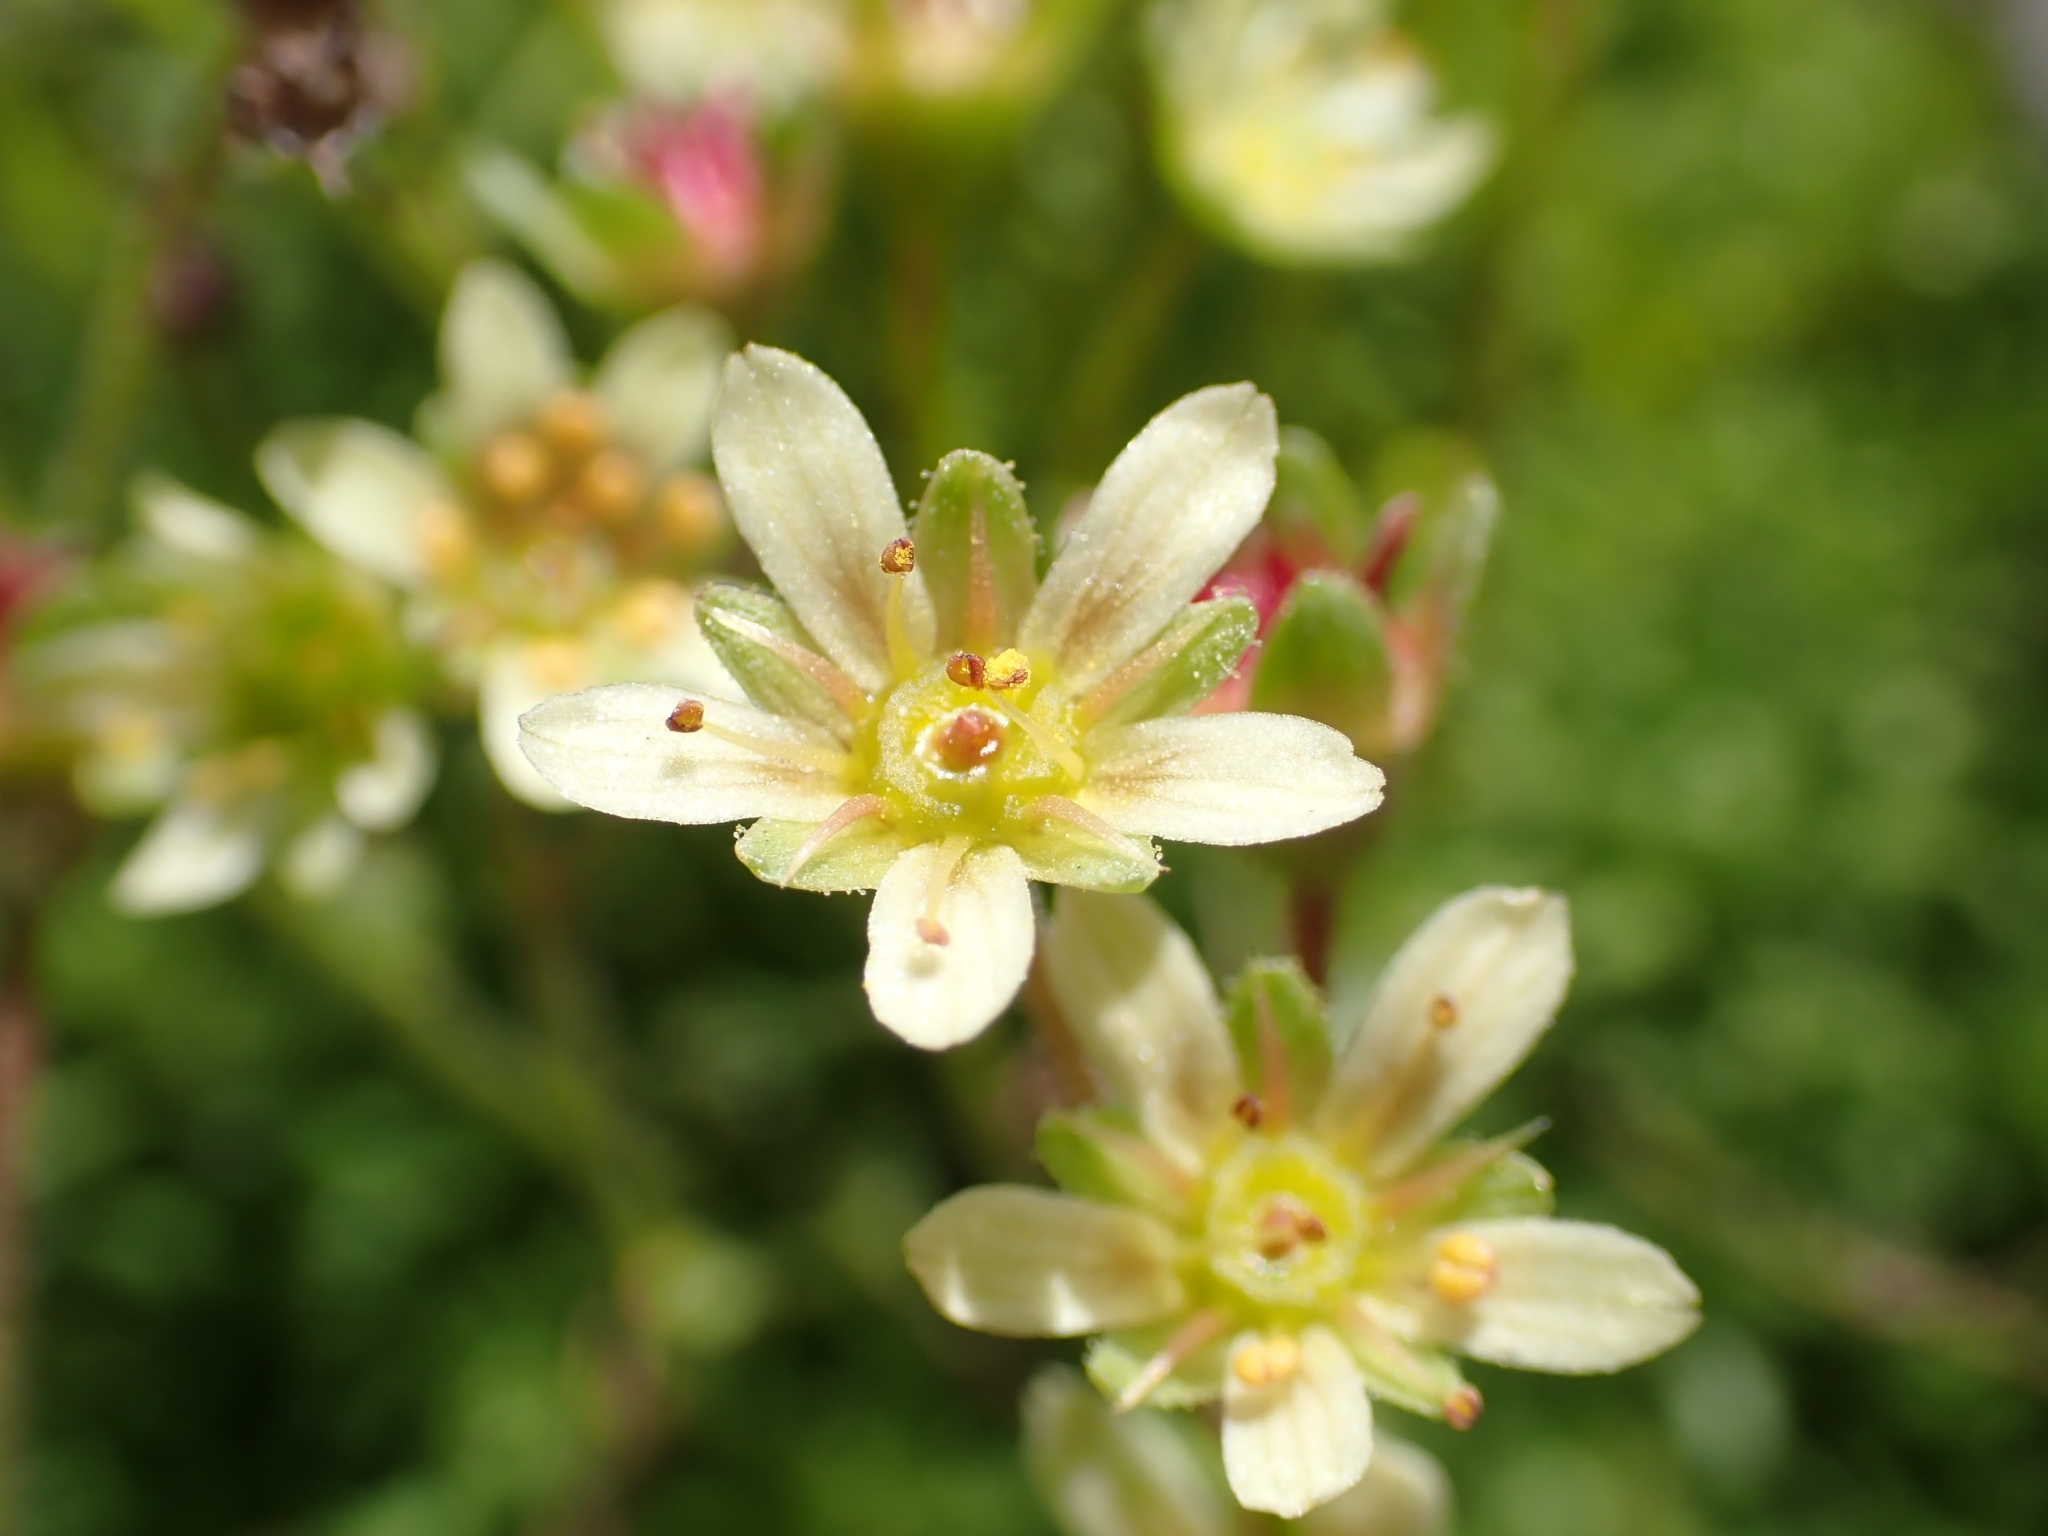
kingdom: Plantae
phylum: Tracheophyta
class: Magnoliopsida
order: Saxifragales
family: Saxifragaceae
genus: Saxifraga
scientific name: Saxifraga moschata
